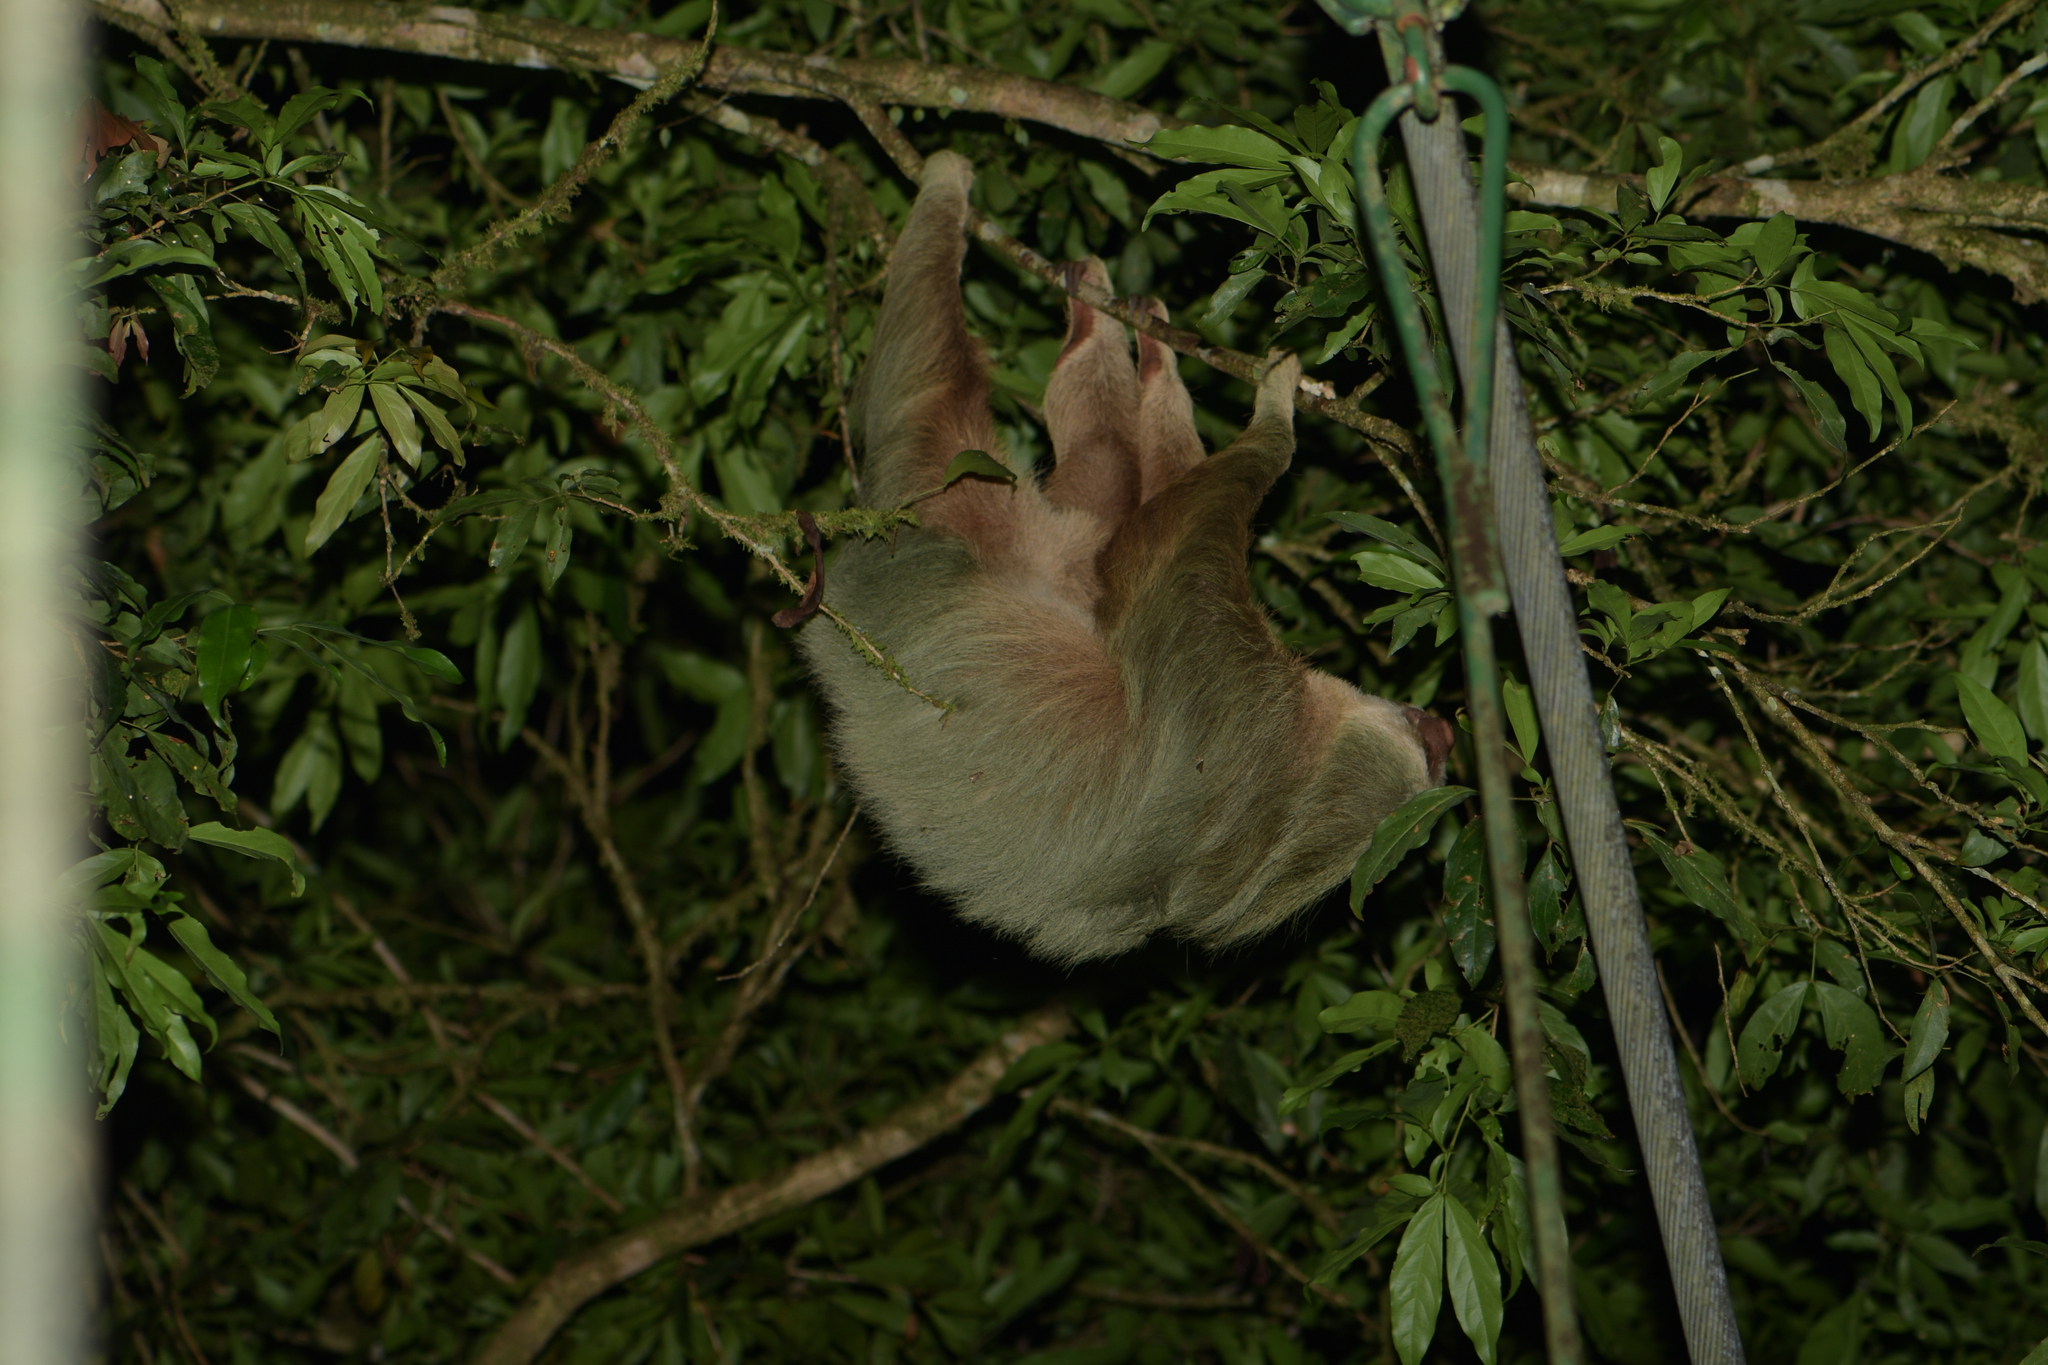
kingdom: Animalia
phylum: Chordata
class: Mammalia
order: Pilosa
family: Megalonychidae
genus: Choloepus
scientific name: Choloepus hoffmanni
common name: Hoffmann's two-toed sloth
